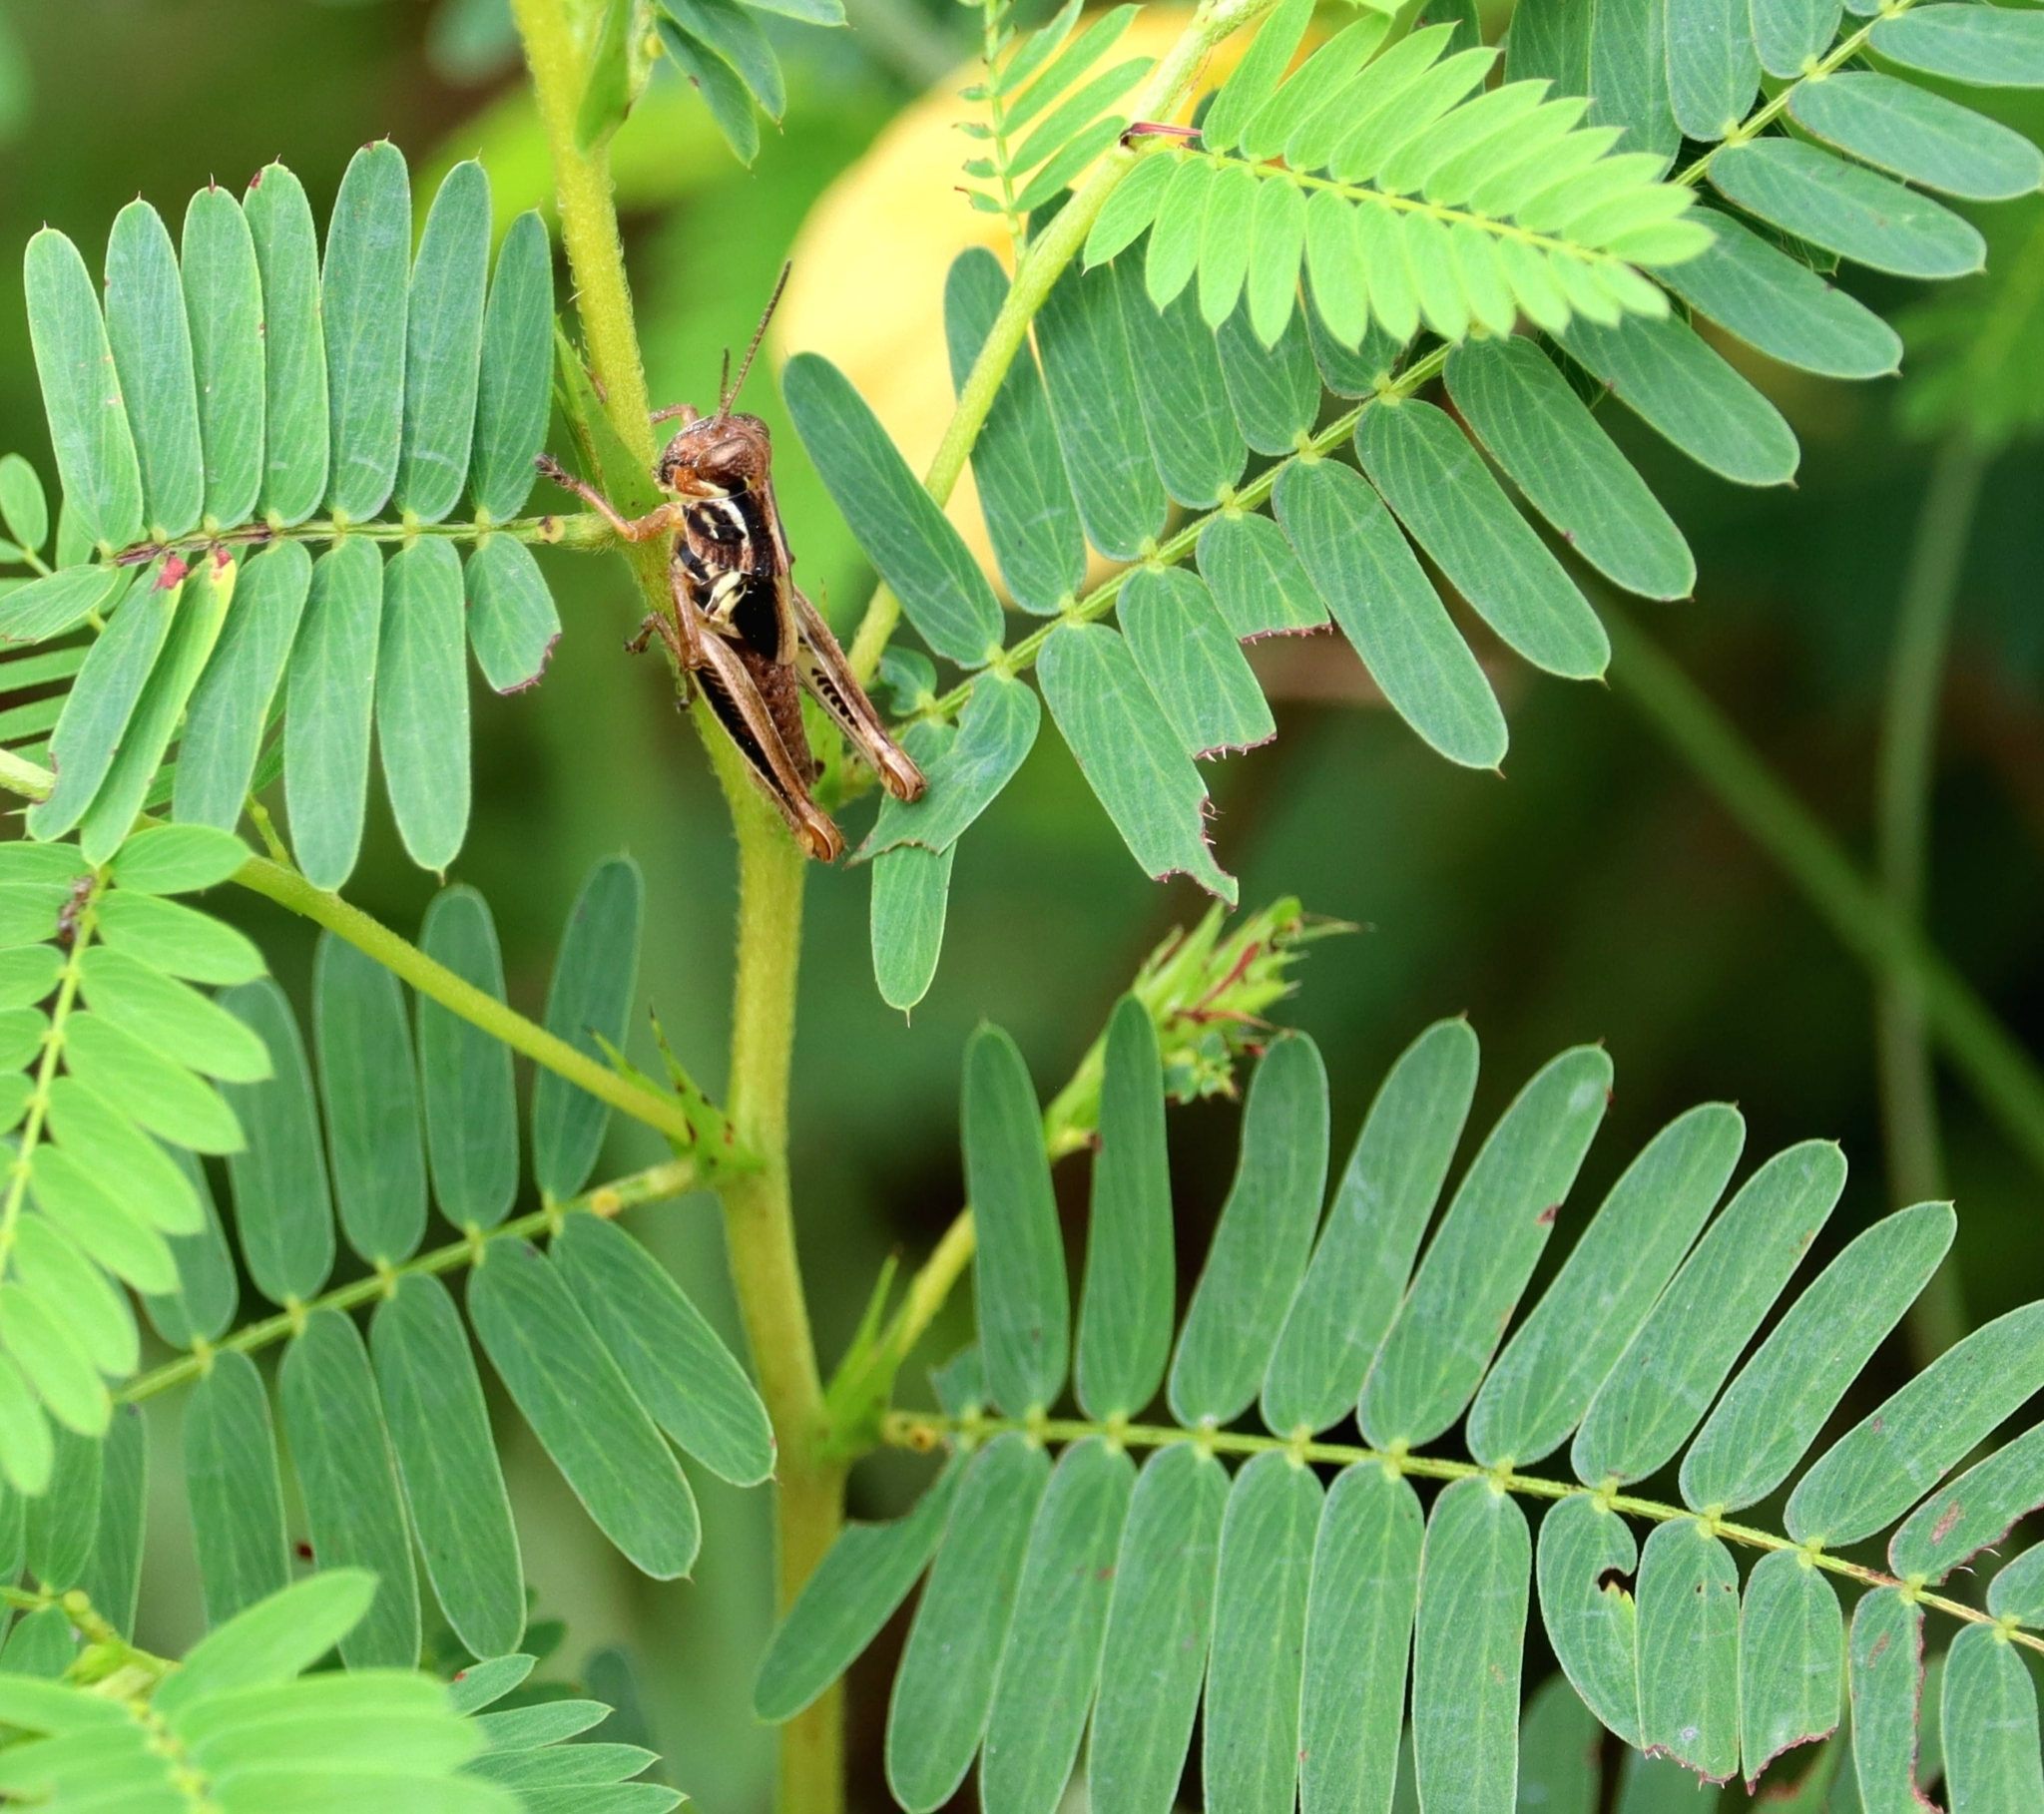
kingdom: Animalia
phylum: Arthropoda
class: Insecta
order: Orthoptera
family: Acrididae
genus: Melanoplus
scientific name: Melanoplus femurrubrum
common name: Red-legged grasshopper
